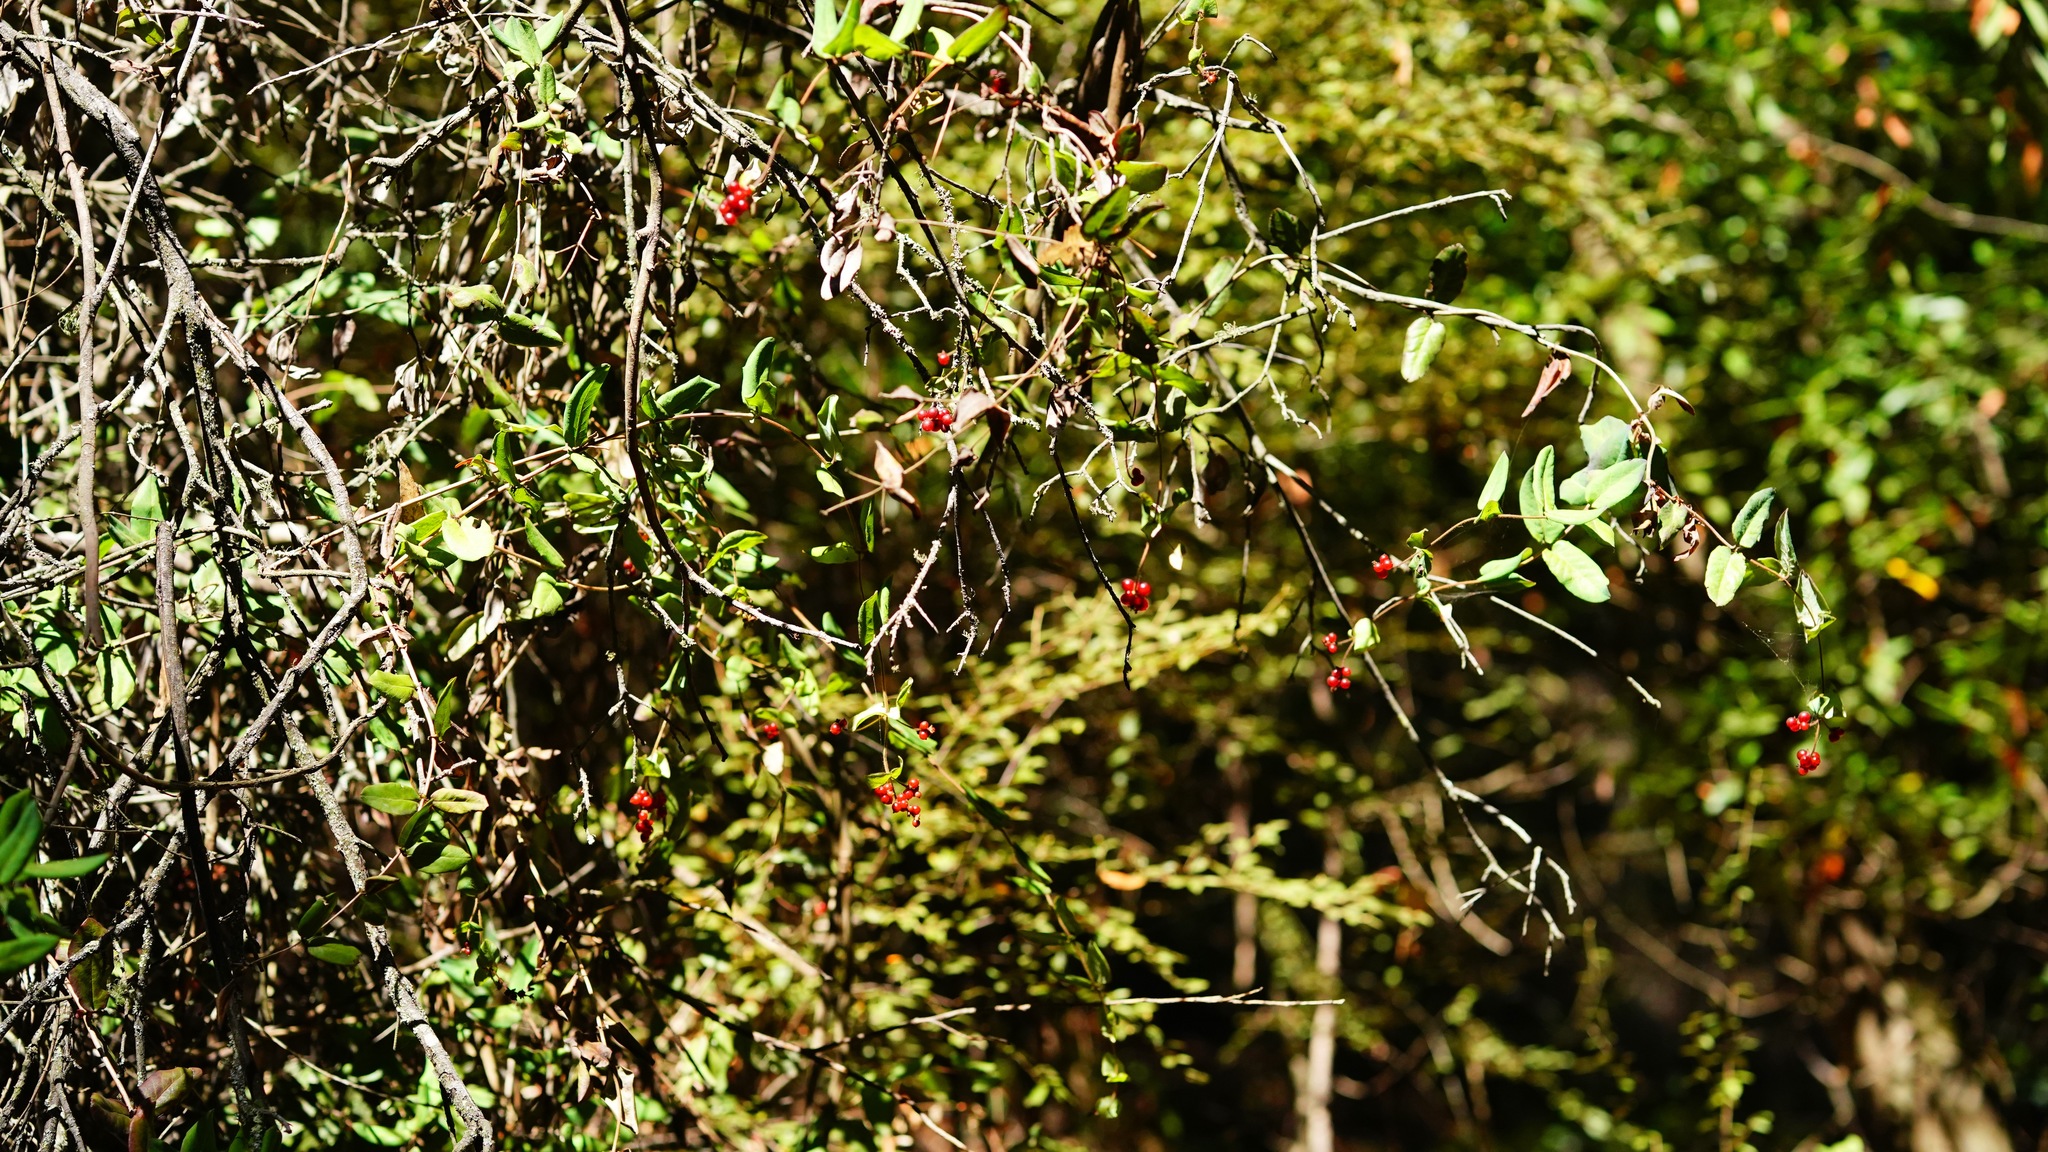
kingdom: Plantae
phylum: Tracheophyta
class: Magnoliopsida
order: Dipsacales
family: Caprifoliaceae
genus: Lonicera
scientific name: Lonicera hispidula
